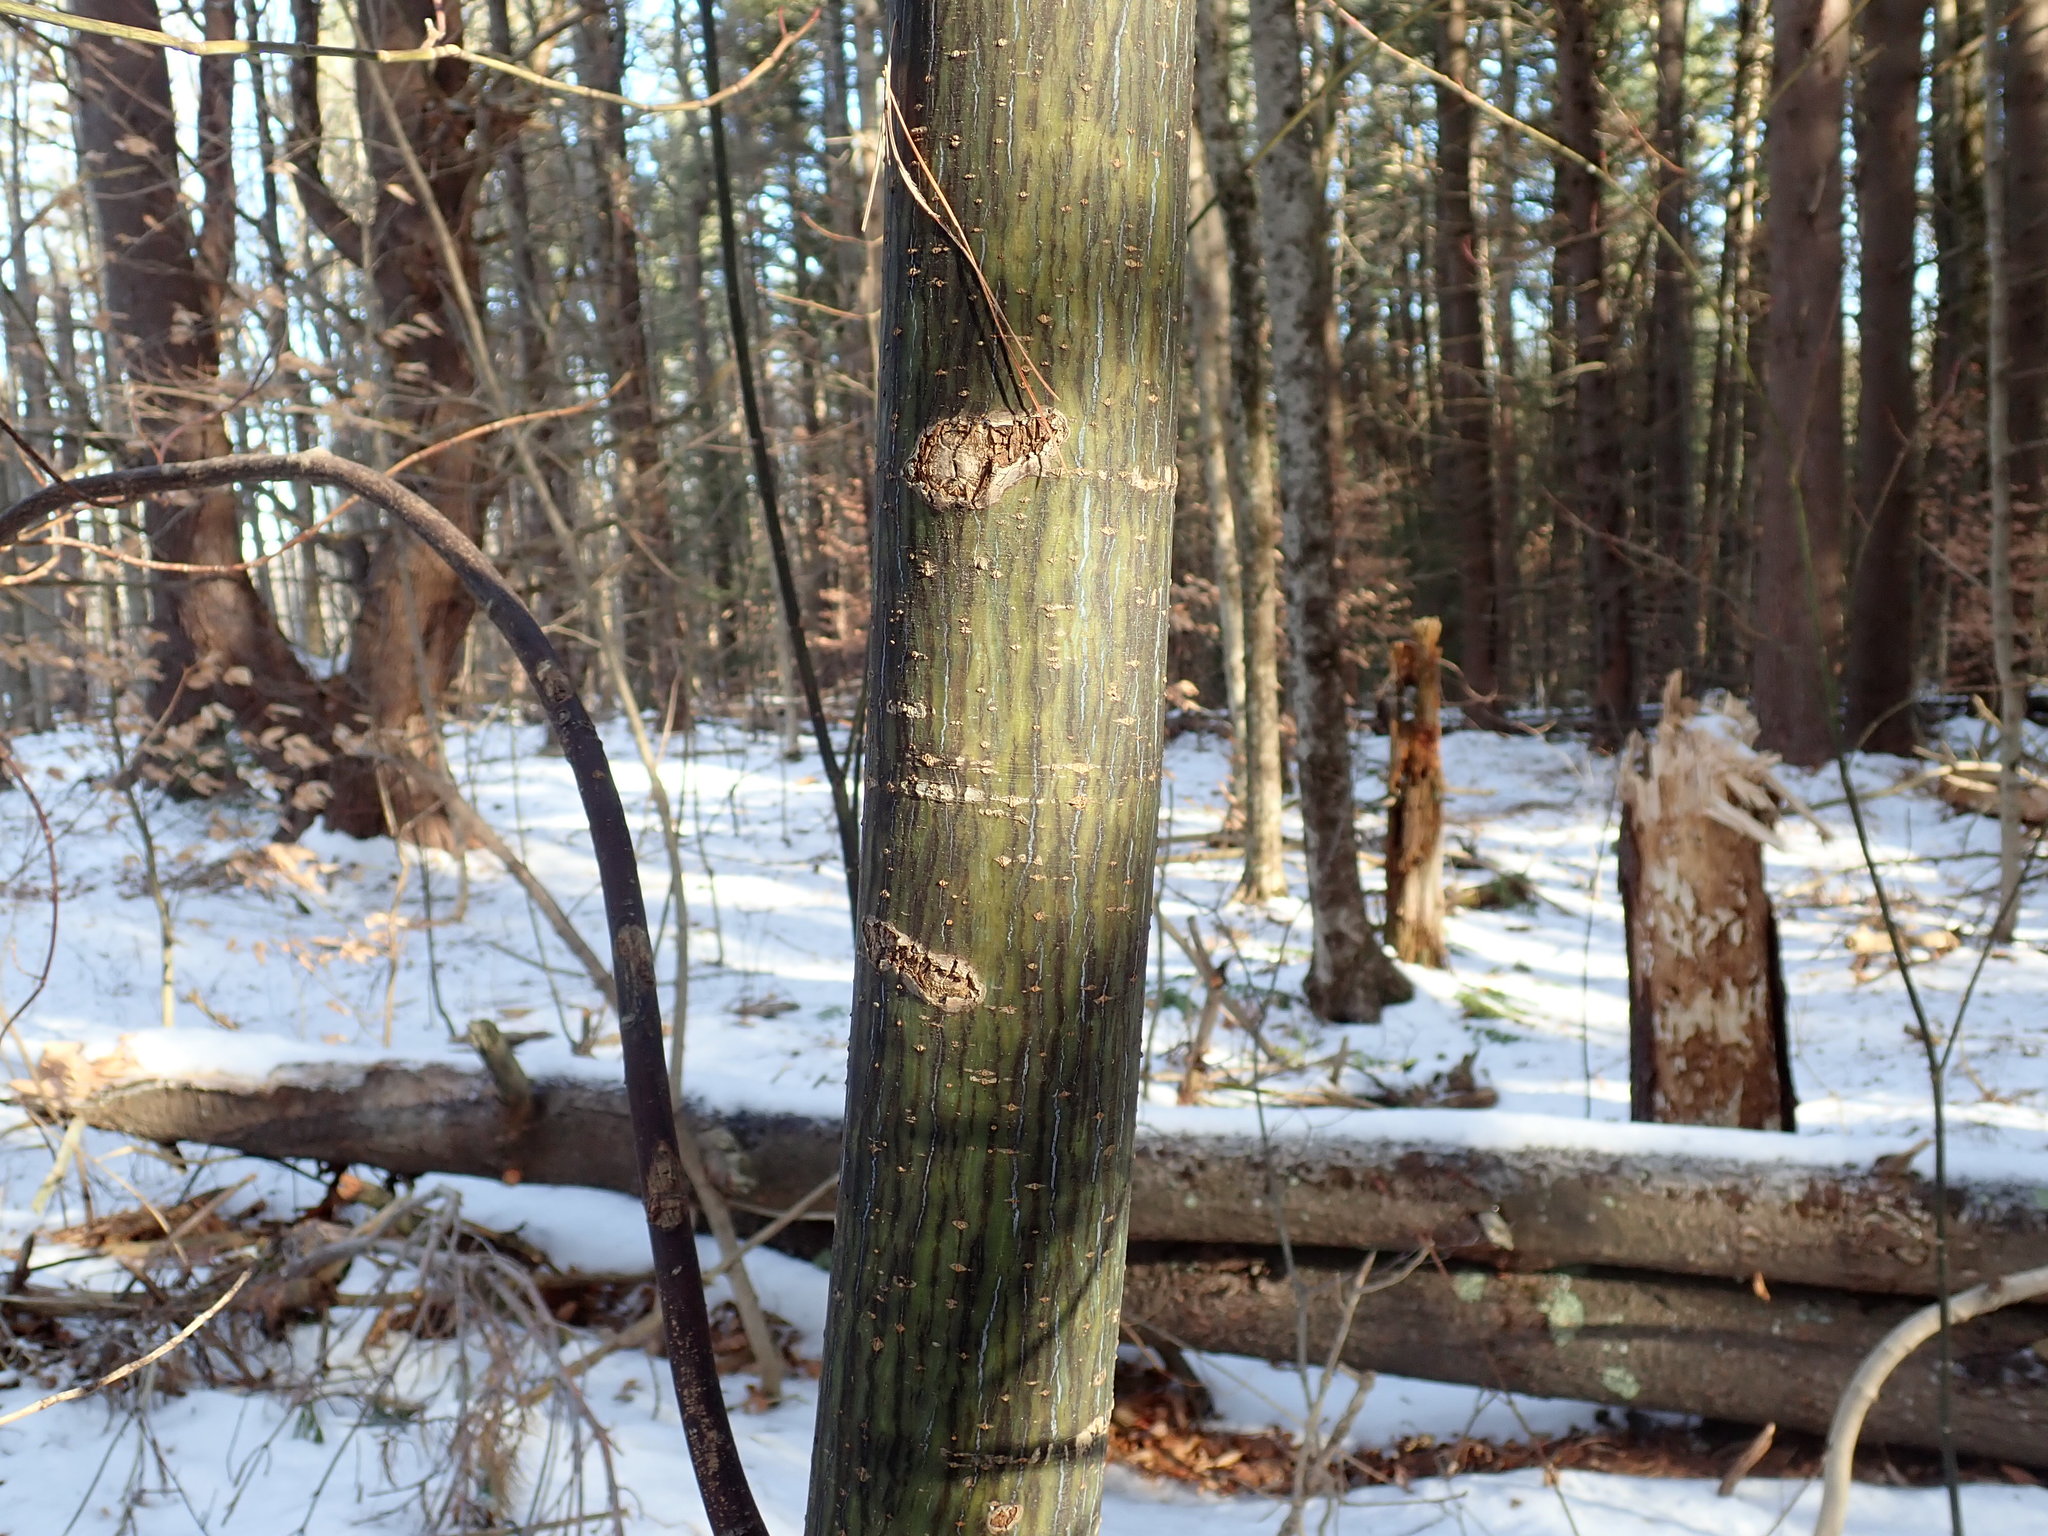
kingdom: Plantae
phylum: Tracheophyta
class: Magnoliopsida
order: Sapindales
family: Sapindaceae
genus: Acer
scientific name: Acer pensylvanicum
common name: Moosewood
